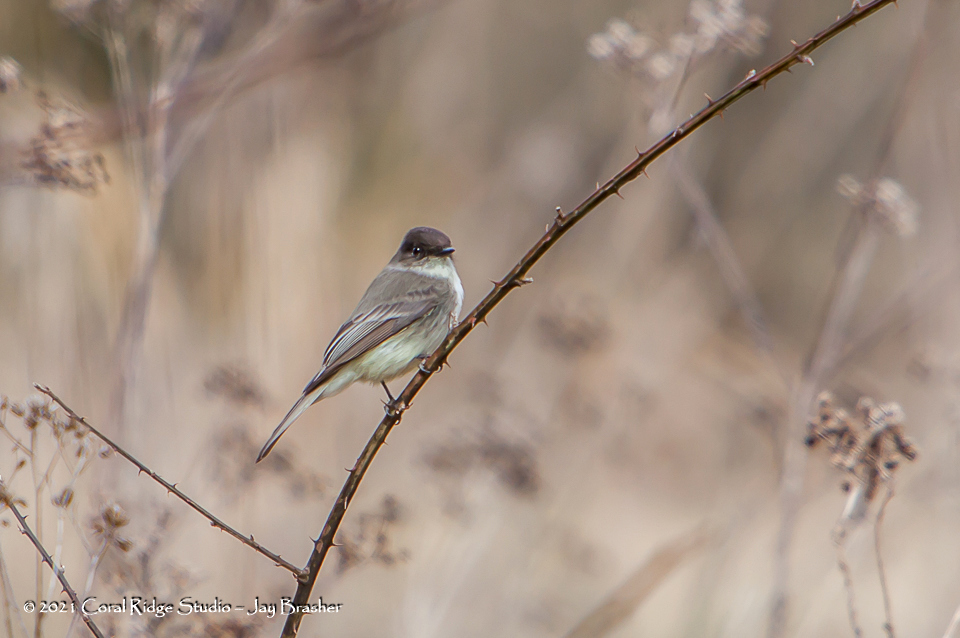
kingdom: Animalia
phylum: Chordata
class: Aves
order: Passeriformes
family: Tyrannidae
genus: Sayornis
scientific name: Sayornis phoebe
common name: Eastern phoebe
